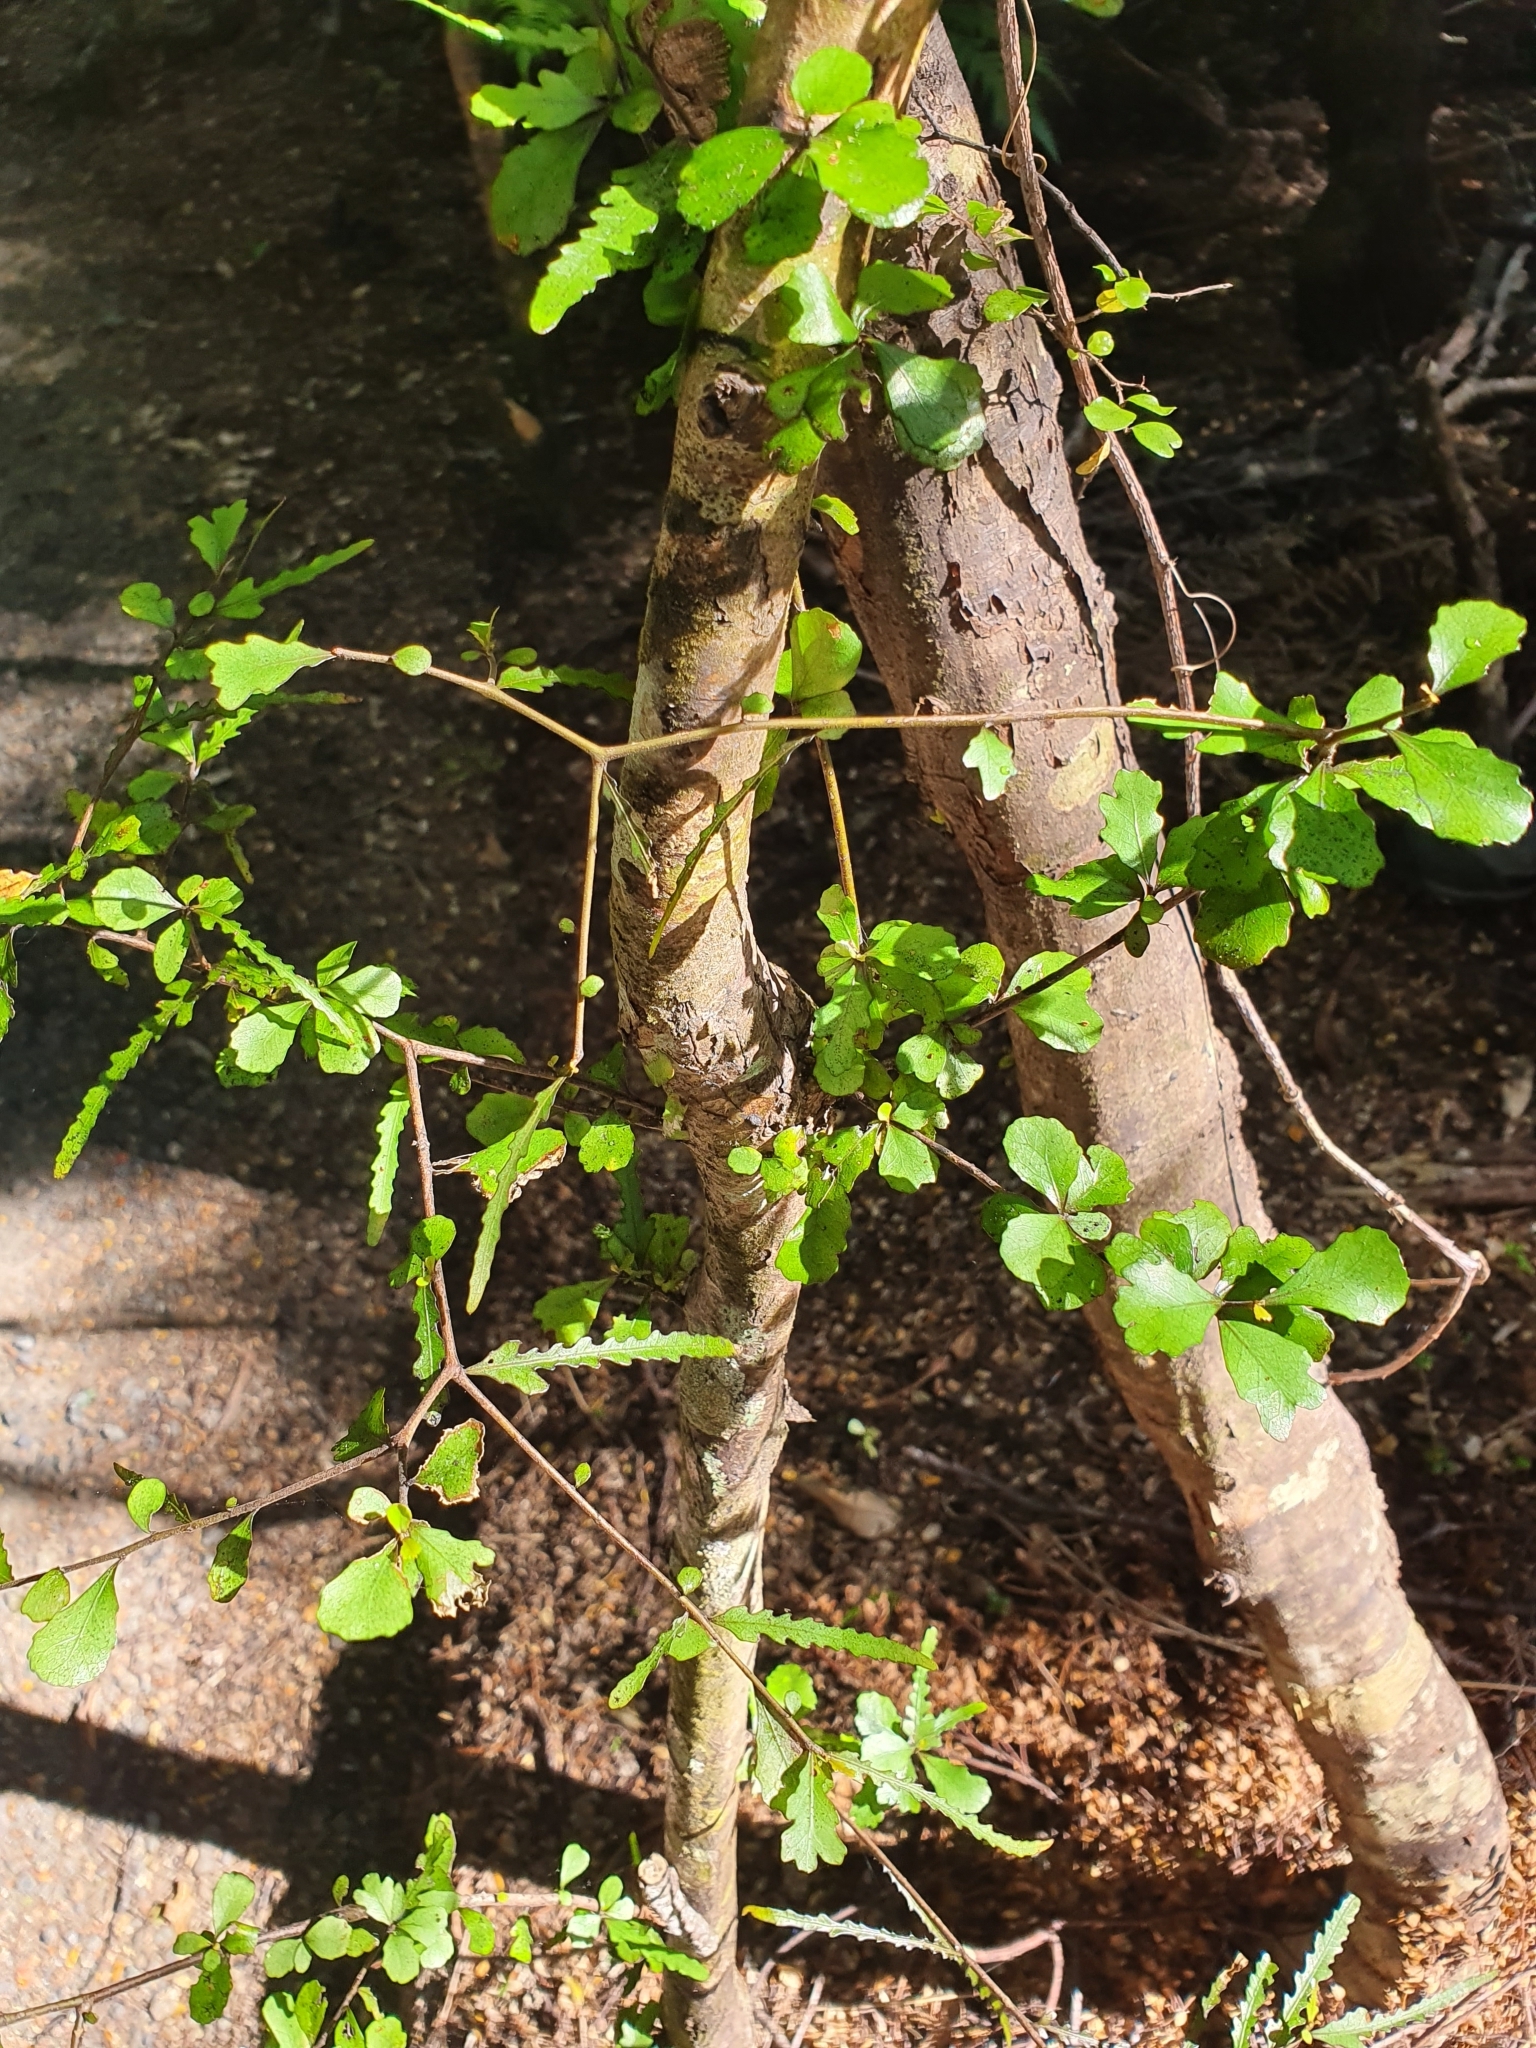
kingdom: Plantae
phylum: Tracheophyta
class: Magnoliopsida
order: Oxalidales
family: Elaeocarpaceae
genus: Elaeocarpus
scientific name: Elaeocarpus hookerianus
